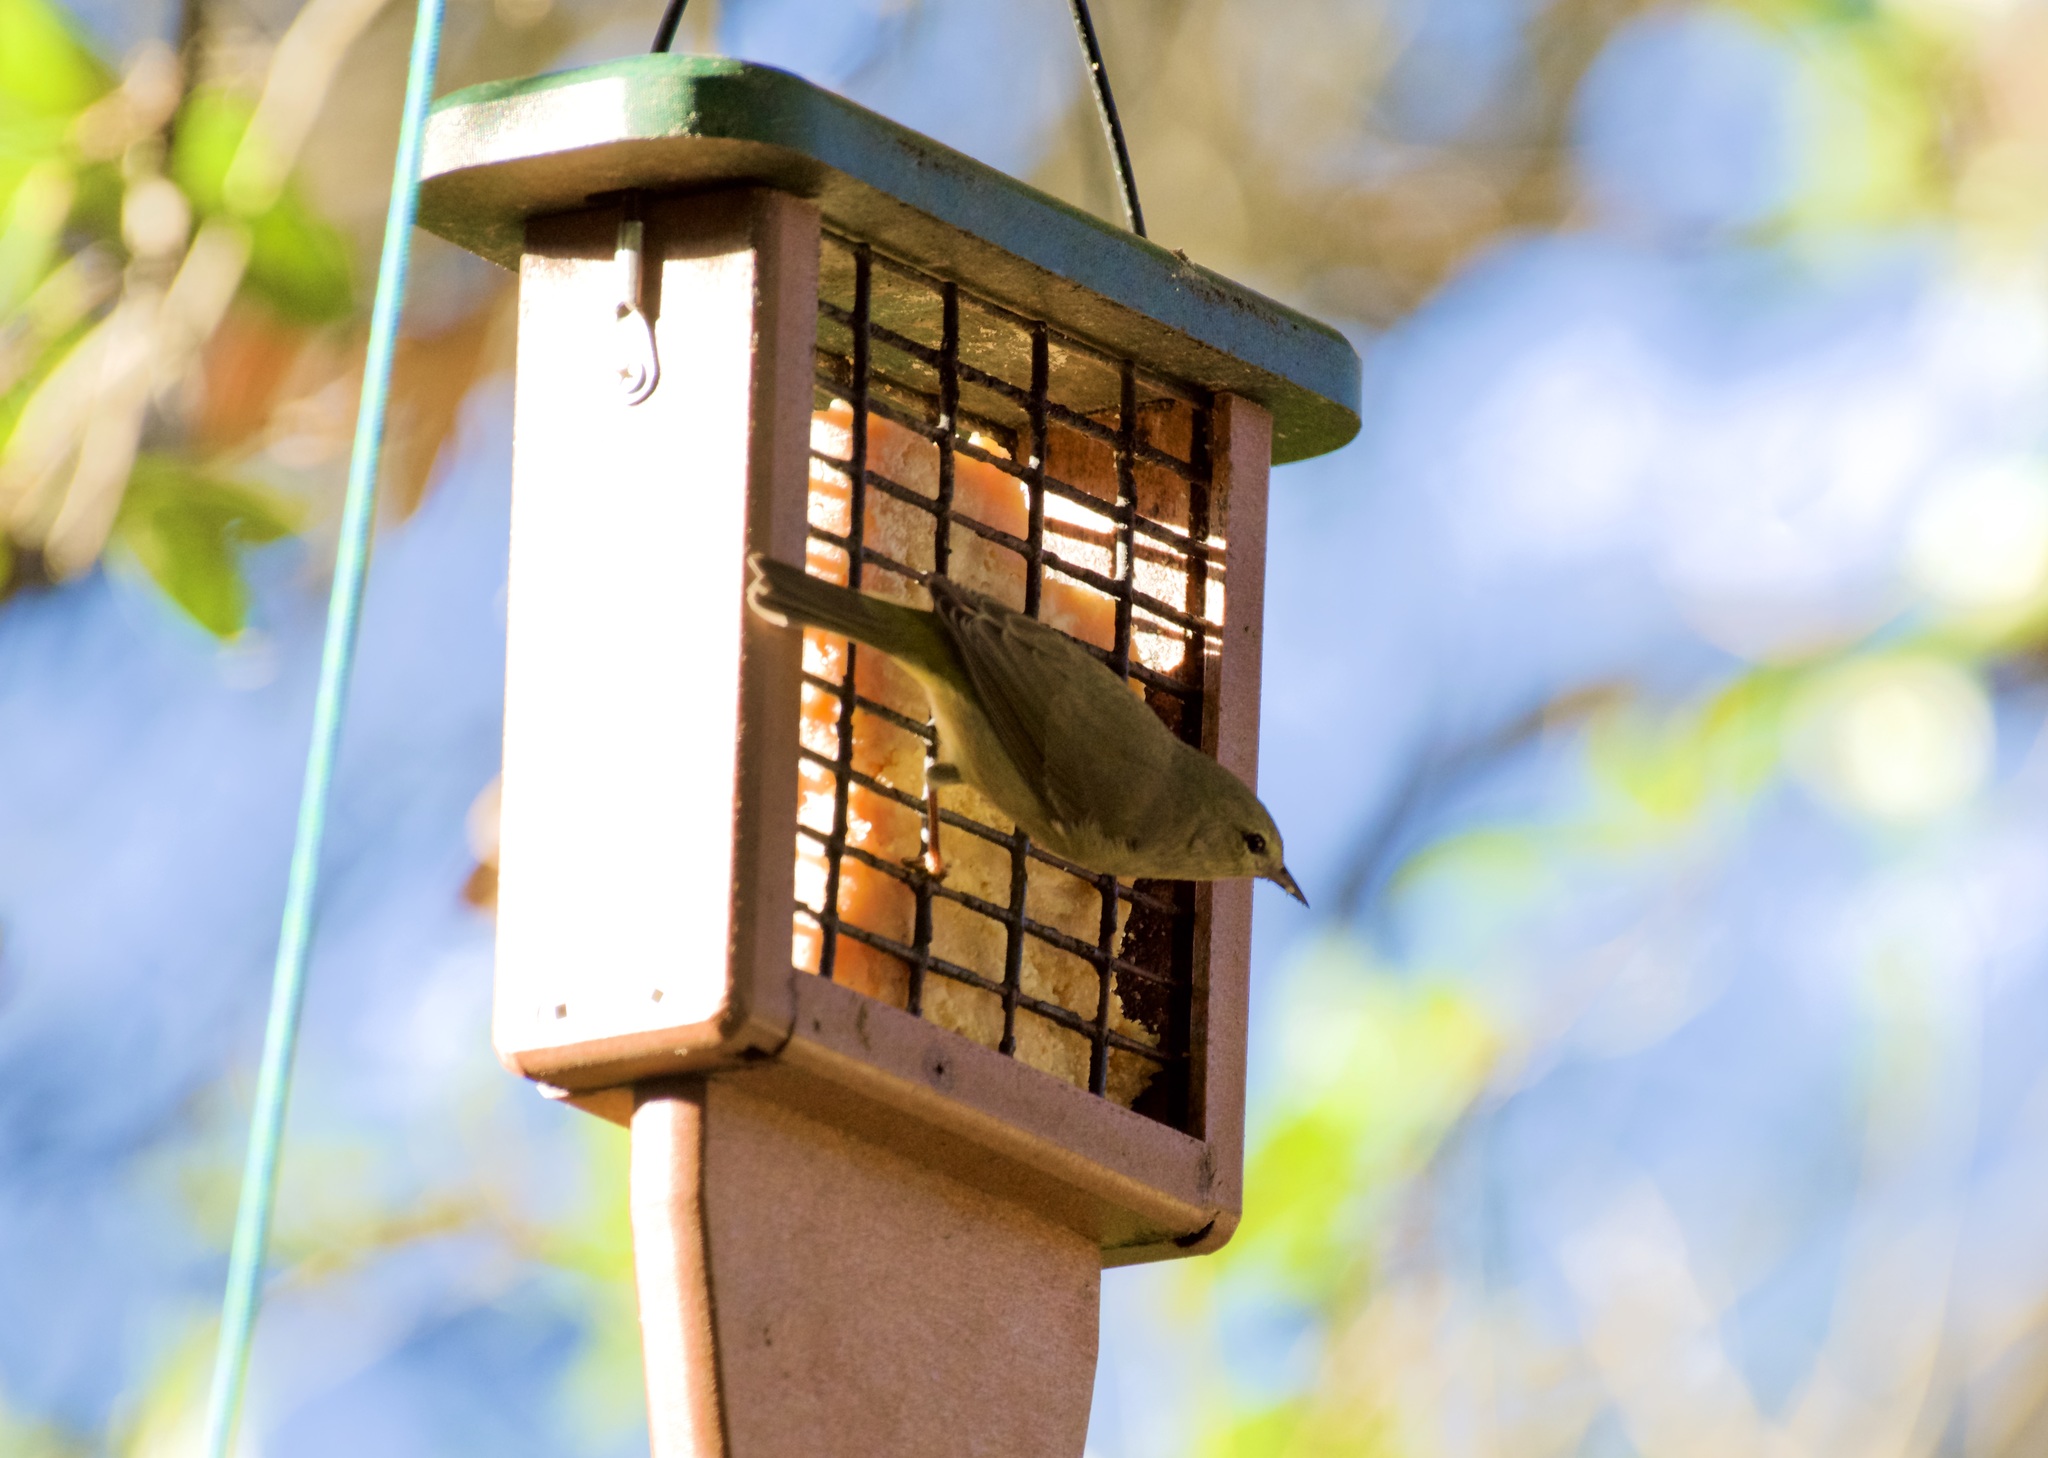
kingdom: Animalia
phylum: Chordata
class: Aves
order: Passeriformes
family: Parulidae
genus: Leiothlypis
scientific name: Leiothlypis celata
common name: Orange-crowned warbler
